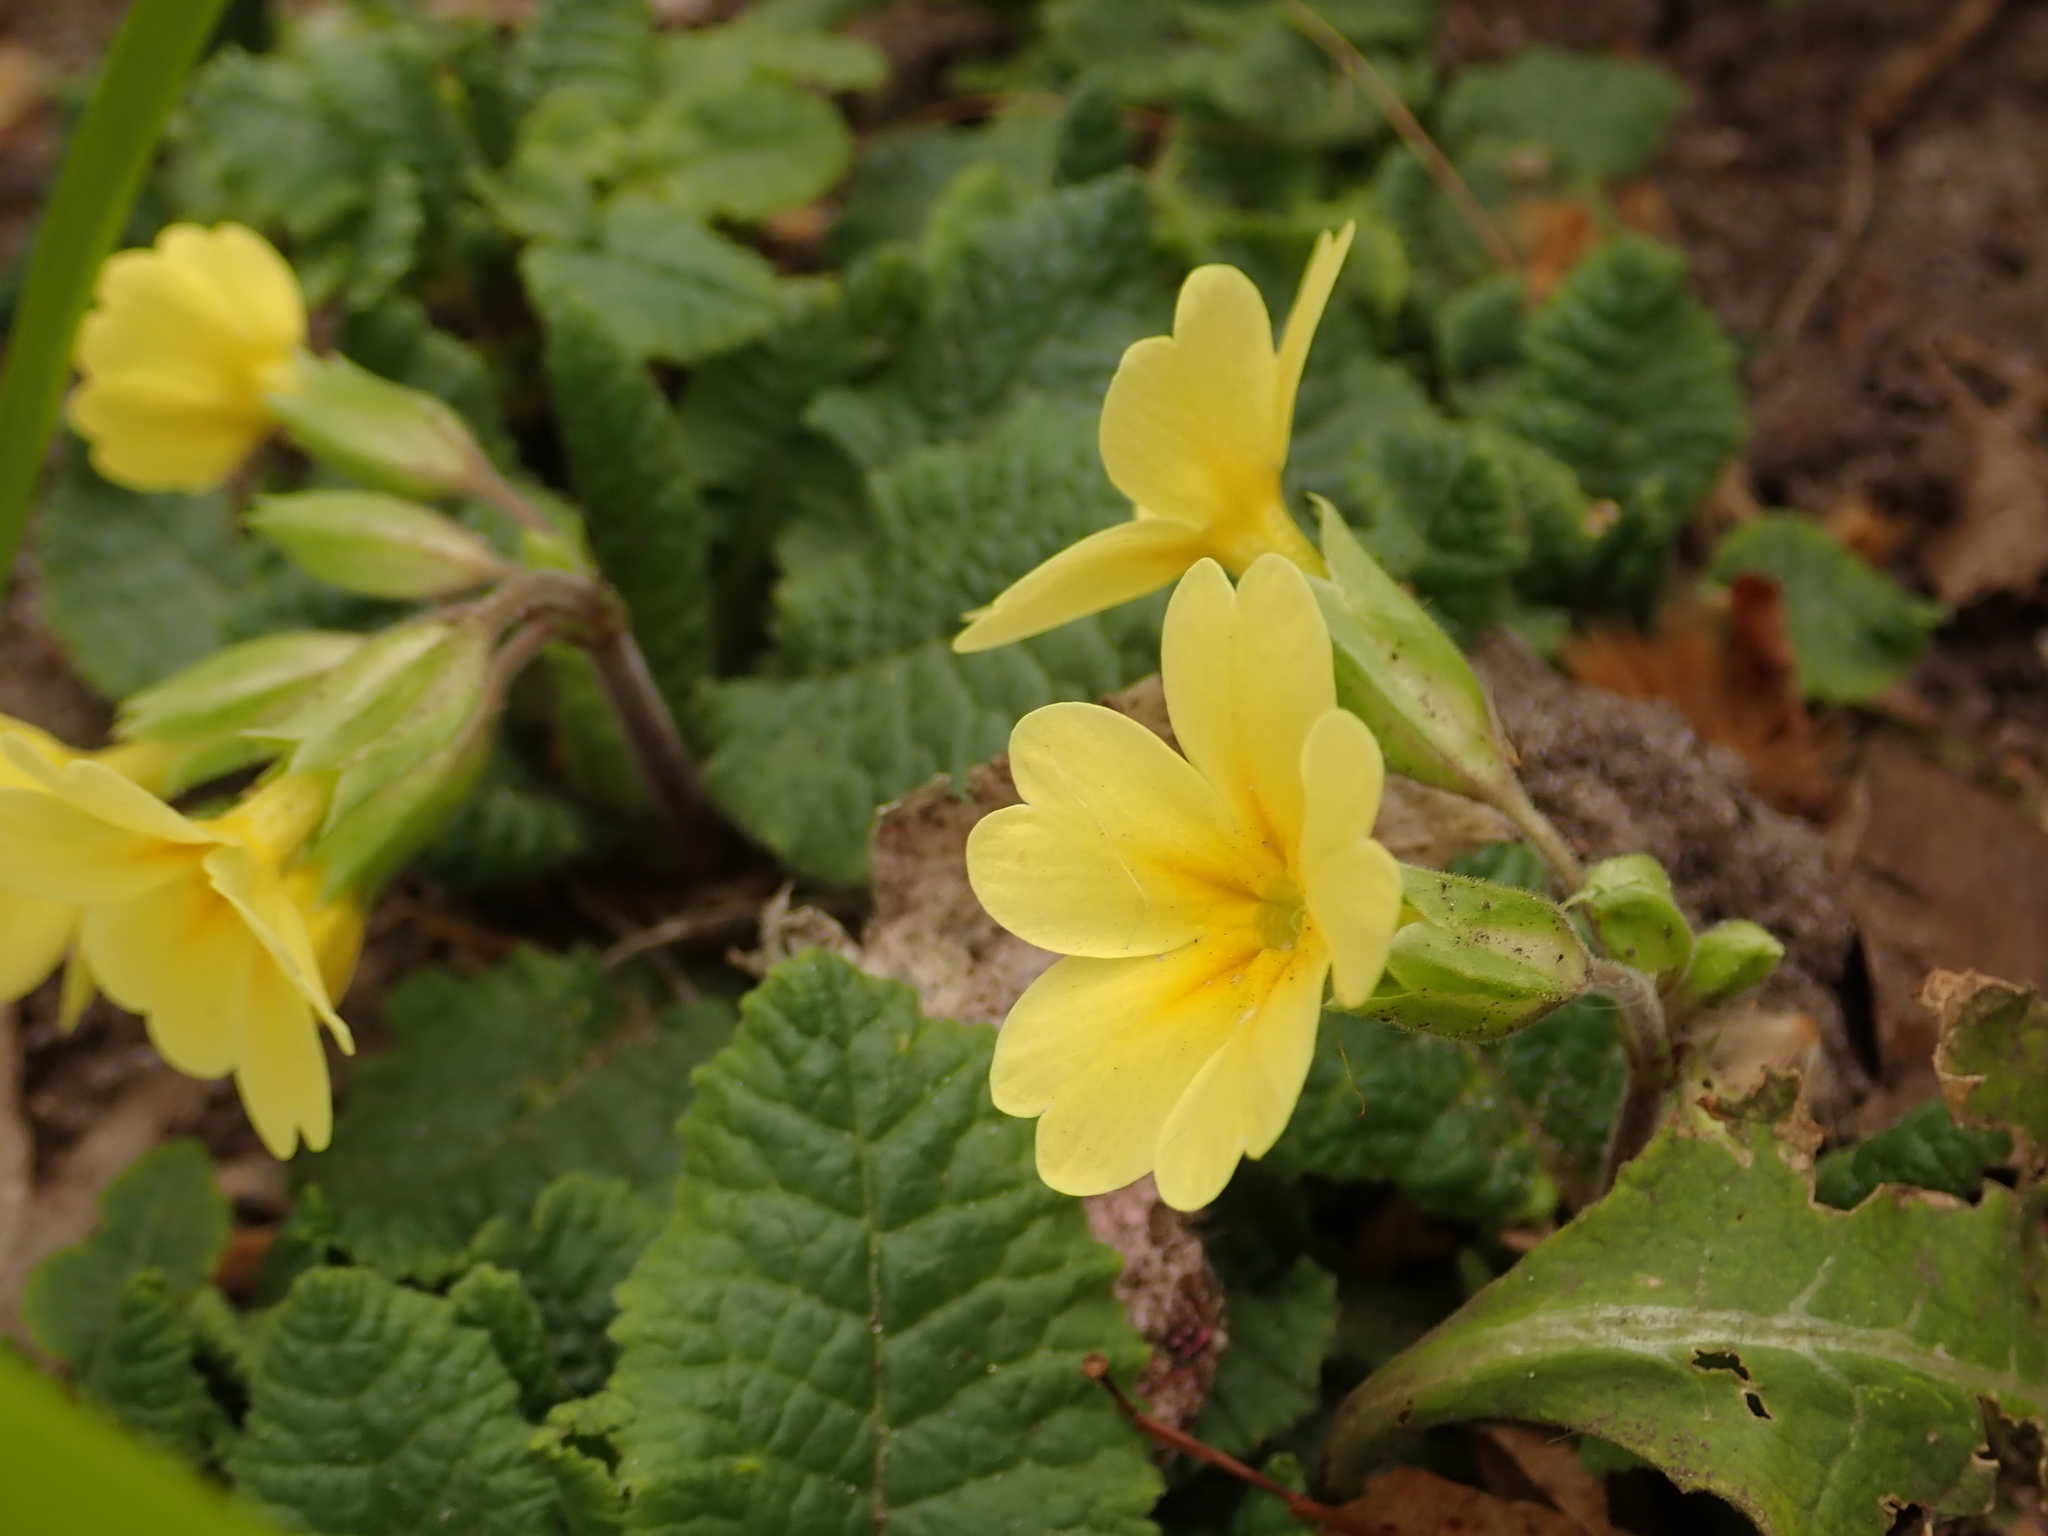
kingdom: Plantae
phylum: Tracheophyta
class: Magnoliopsida
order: Ericales
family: Primulaceae
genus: Primula
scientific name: Primula elatior
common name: Oxlip
